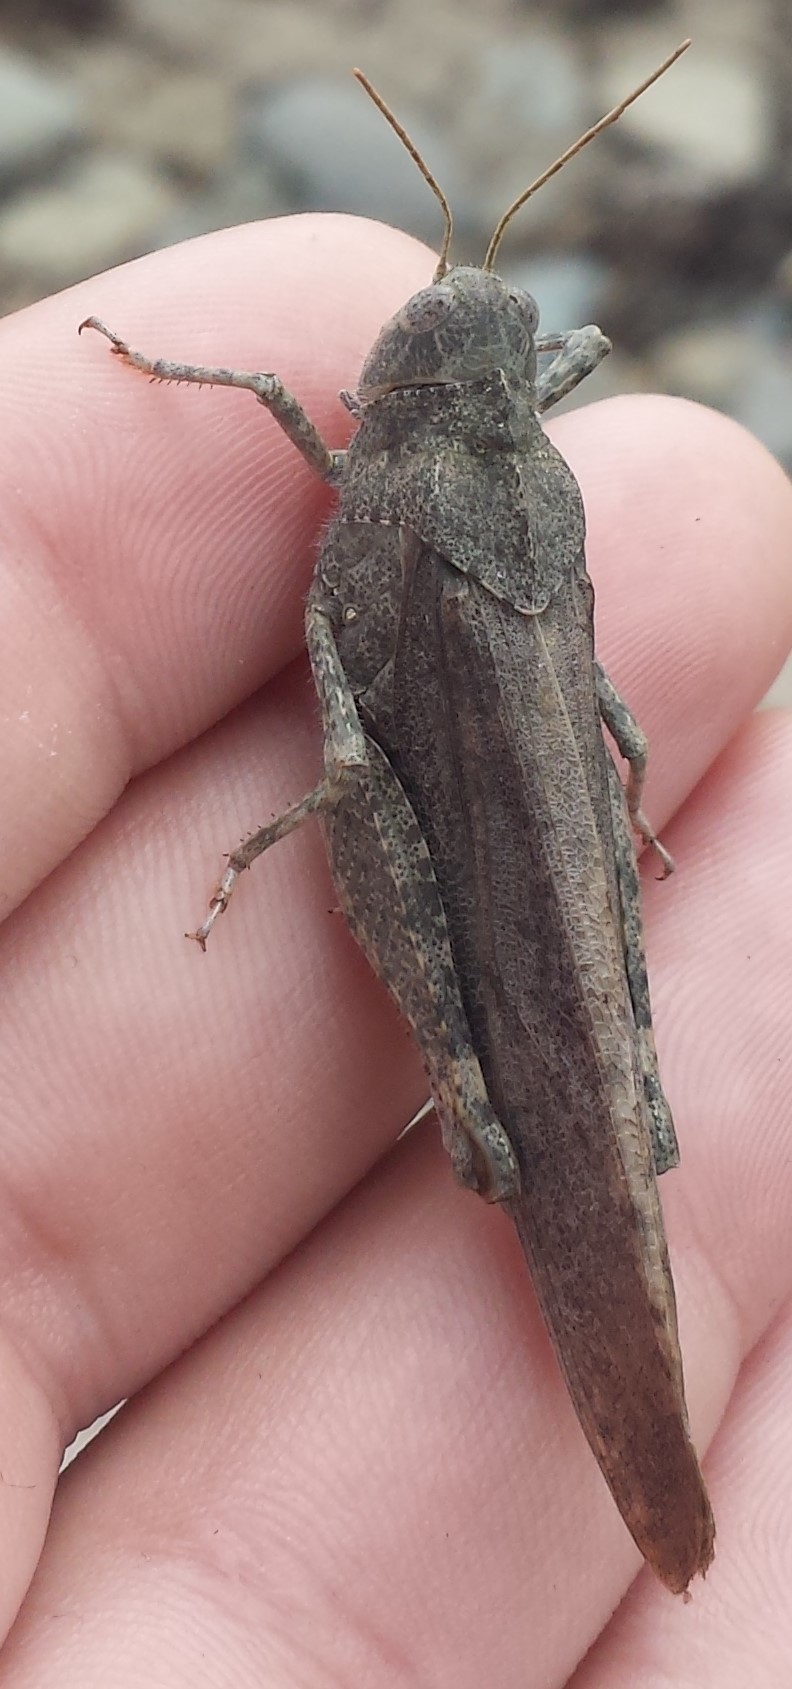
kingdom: Animalia
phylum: Arthropoda
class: Insecta
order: Orthoptera
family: Acrididae
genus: Dissosteira
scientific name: Dissosteira carolina
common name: Carolina grasshopper
